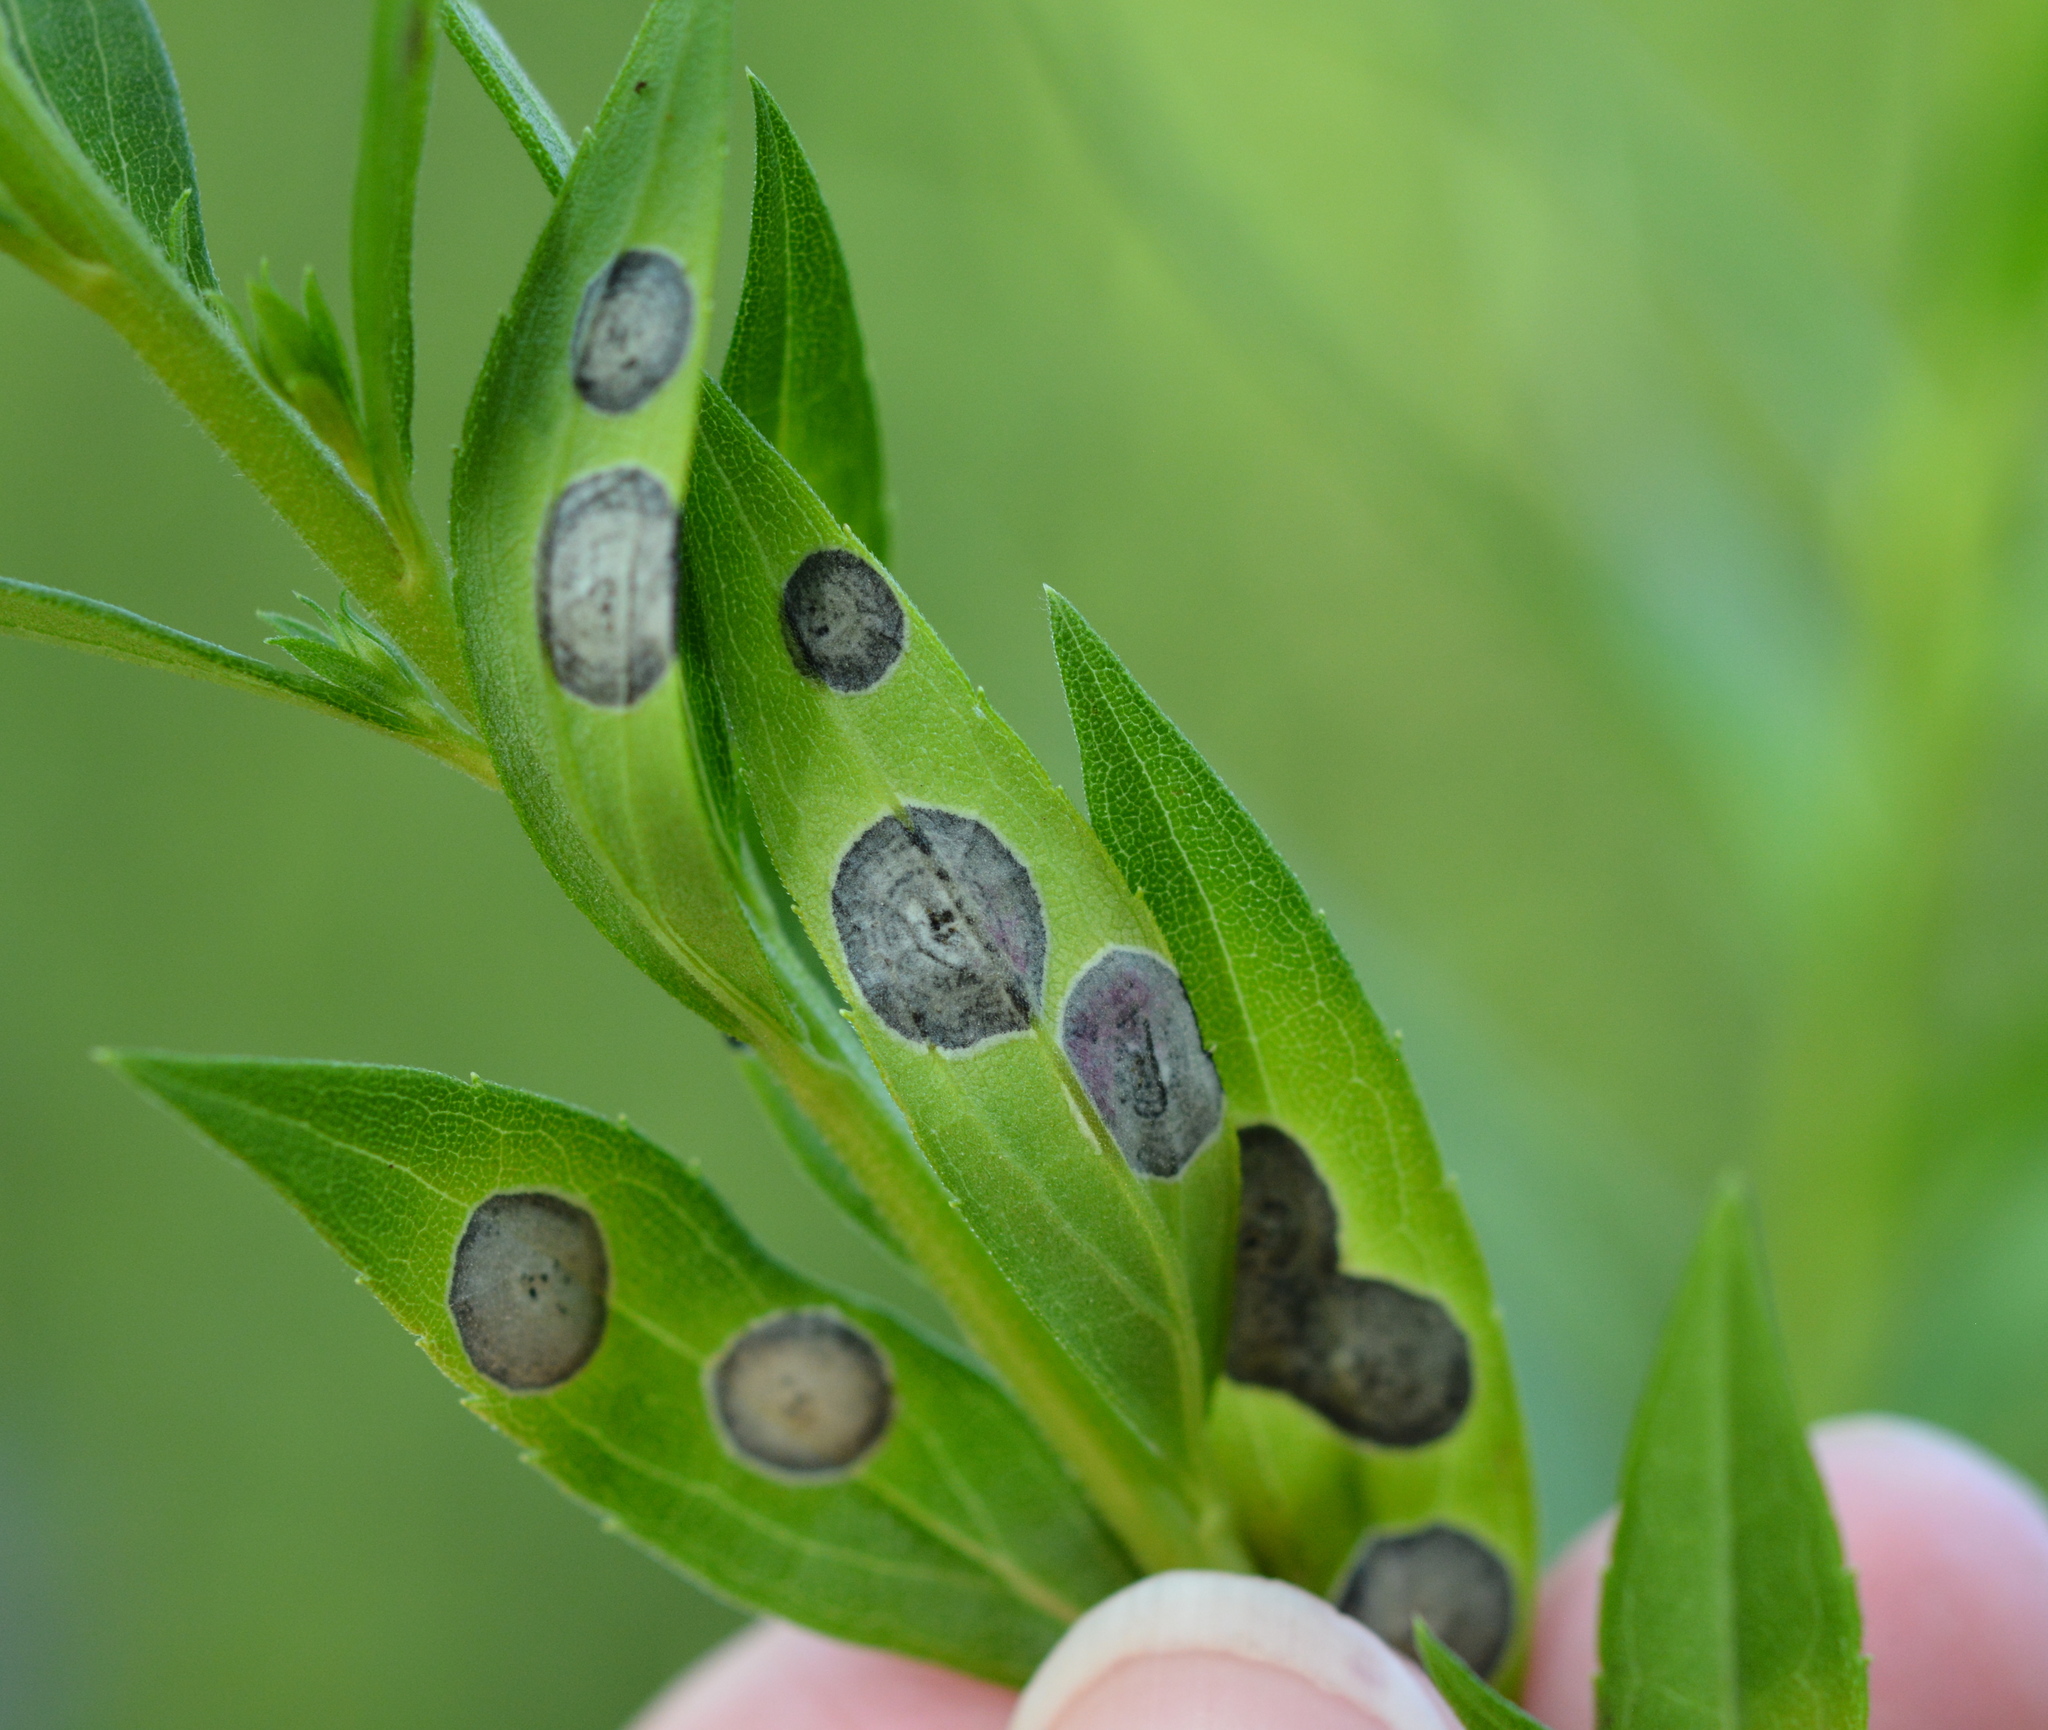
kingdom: Animalia
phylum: Arthropoda
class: Insecta
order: Diptera
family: Cecidomyiidae
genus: Asteromyia
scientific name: Asteromyia carbonifera
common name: Carbonifera goldenrod gall midge
